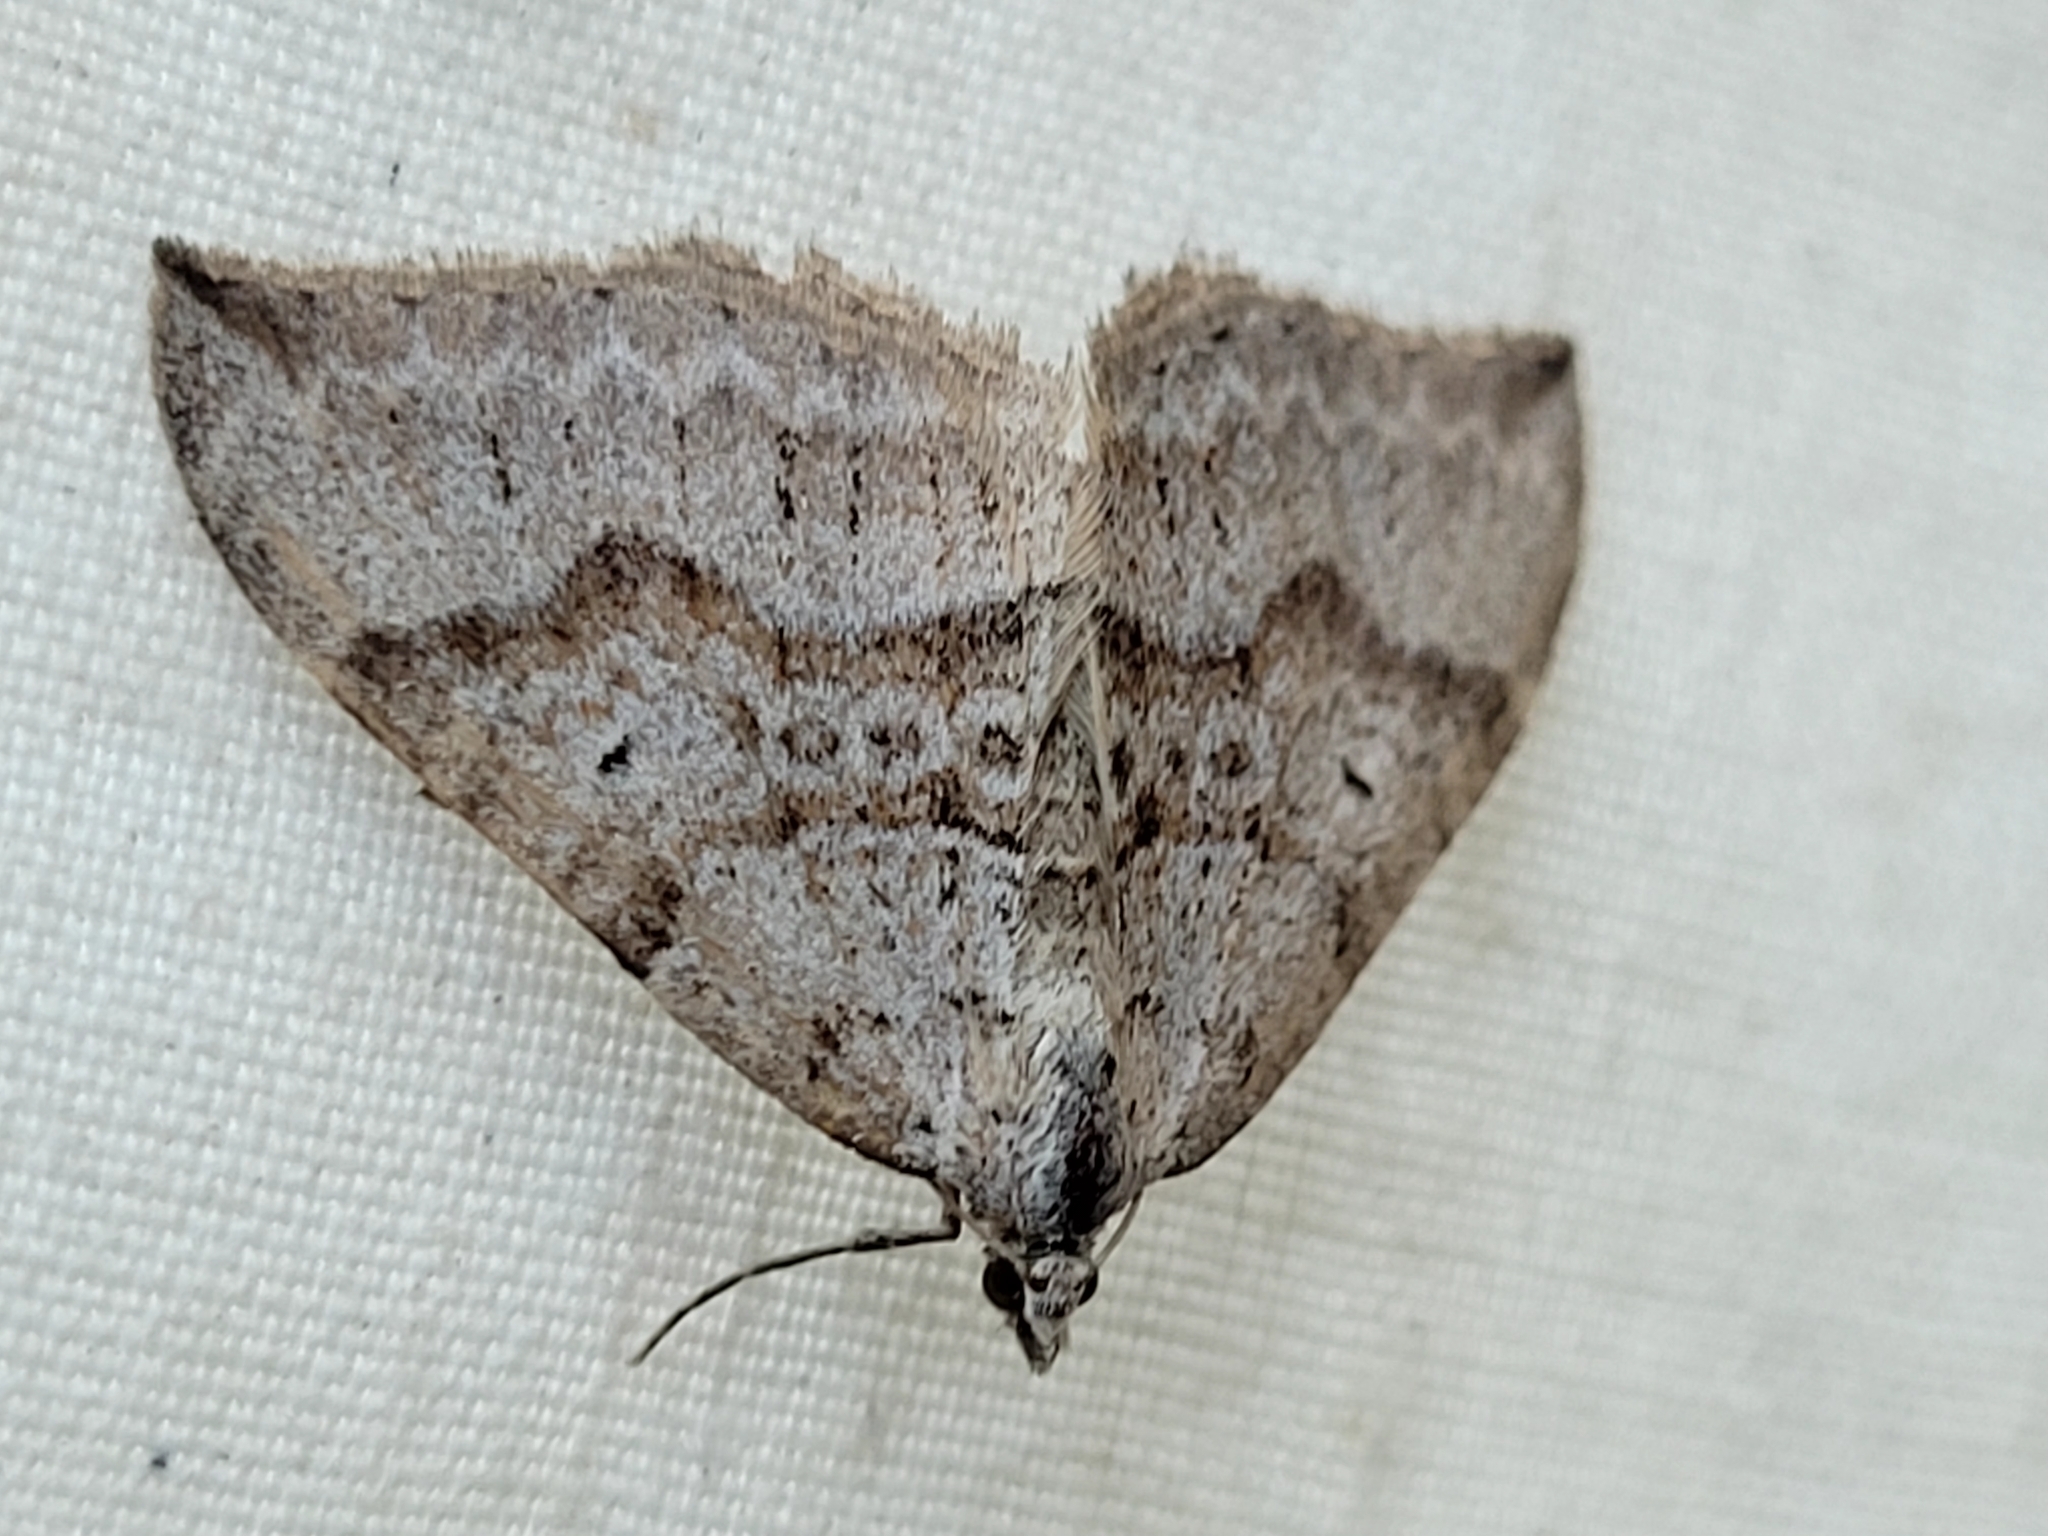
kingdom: Animalia
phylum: Arthropoda
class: Insecta
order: Lepidoptera
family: Geometridae
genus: Zenophleps
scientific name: Zenophleps alpinata
